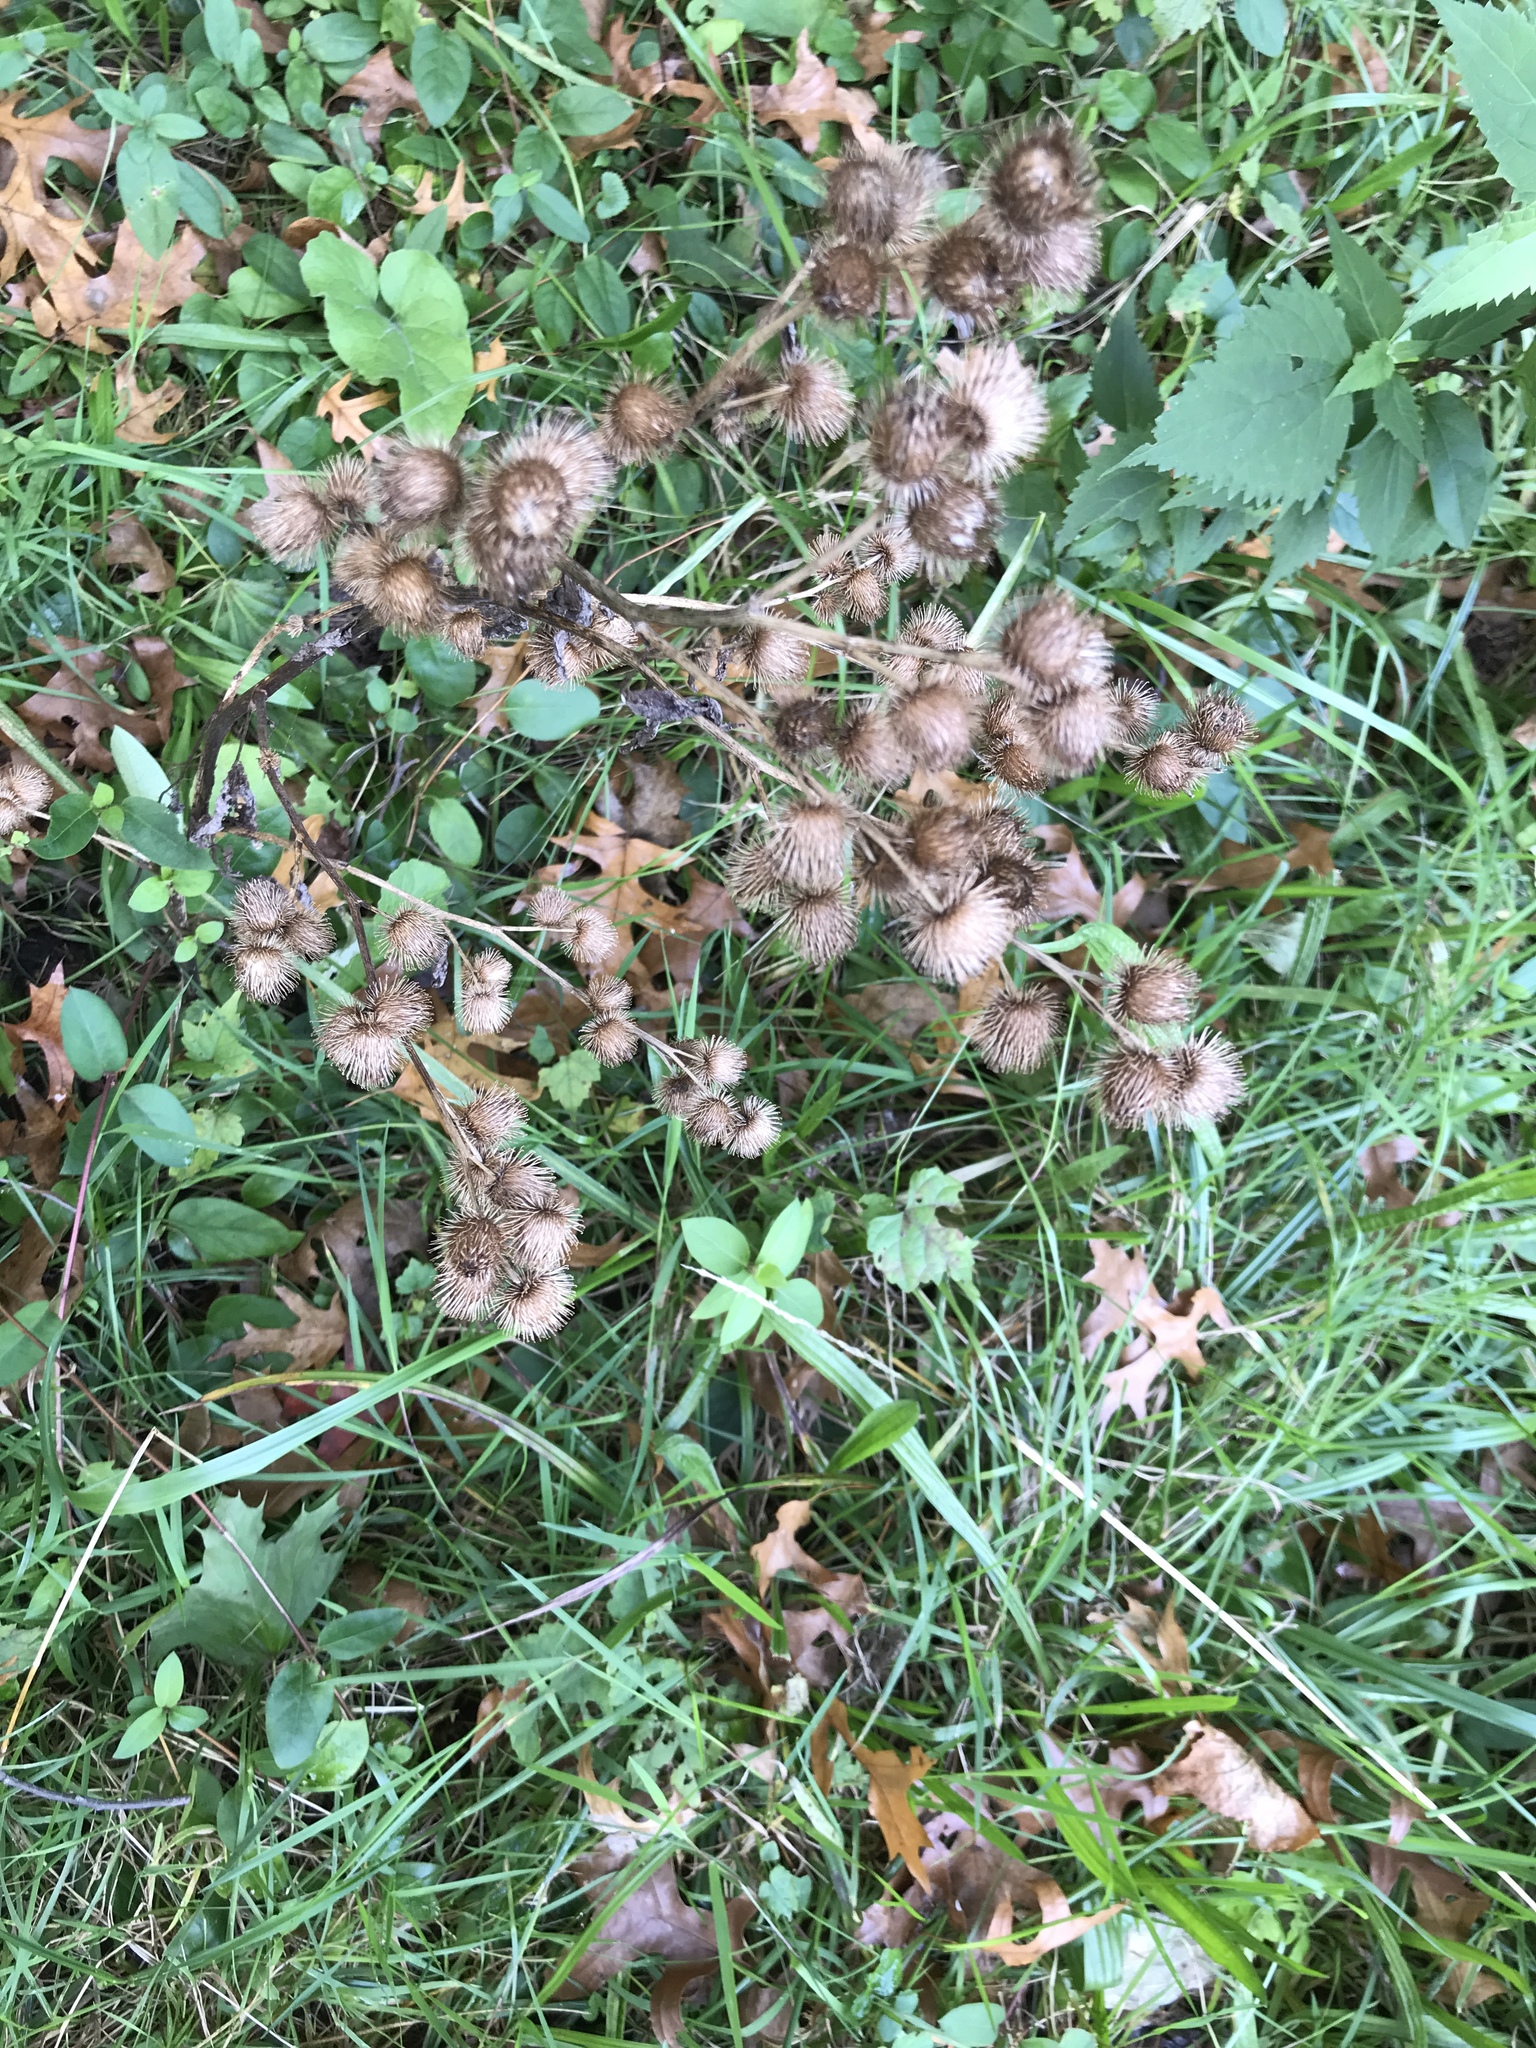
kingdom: Plantae
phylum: Tracheophyta
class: Magnoliopsida
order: Asterales
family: Asteraceae
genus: Arctium
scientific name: Arctium minus
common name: Lesser burdock
